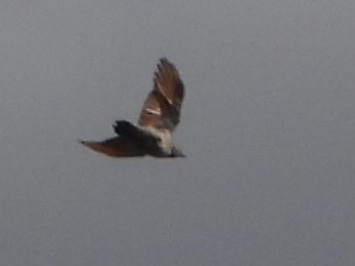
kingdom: Animalia
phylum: Chordata
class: Aves
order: Piciformes
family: Picidae
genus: Colaptes
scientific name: Colaptes auratus
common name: Northern flicker
